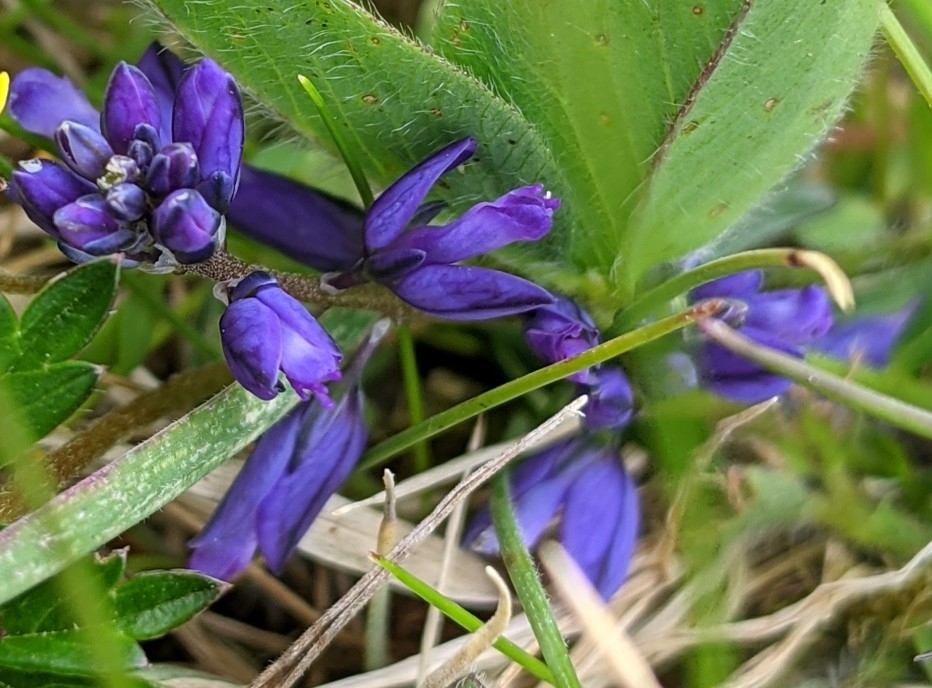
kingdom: Plantae
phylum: Tracheophyta
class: Magnoliopsida
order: Fabales
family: Polygalaceae
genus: Polygala
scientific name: Polygala vulgaris
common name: Common milkwort
